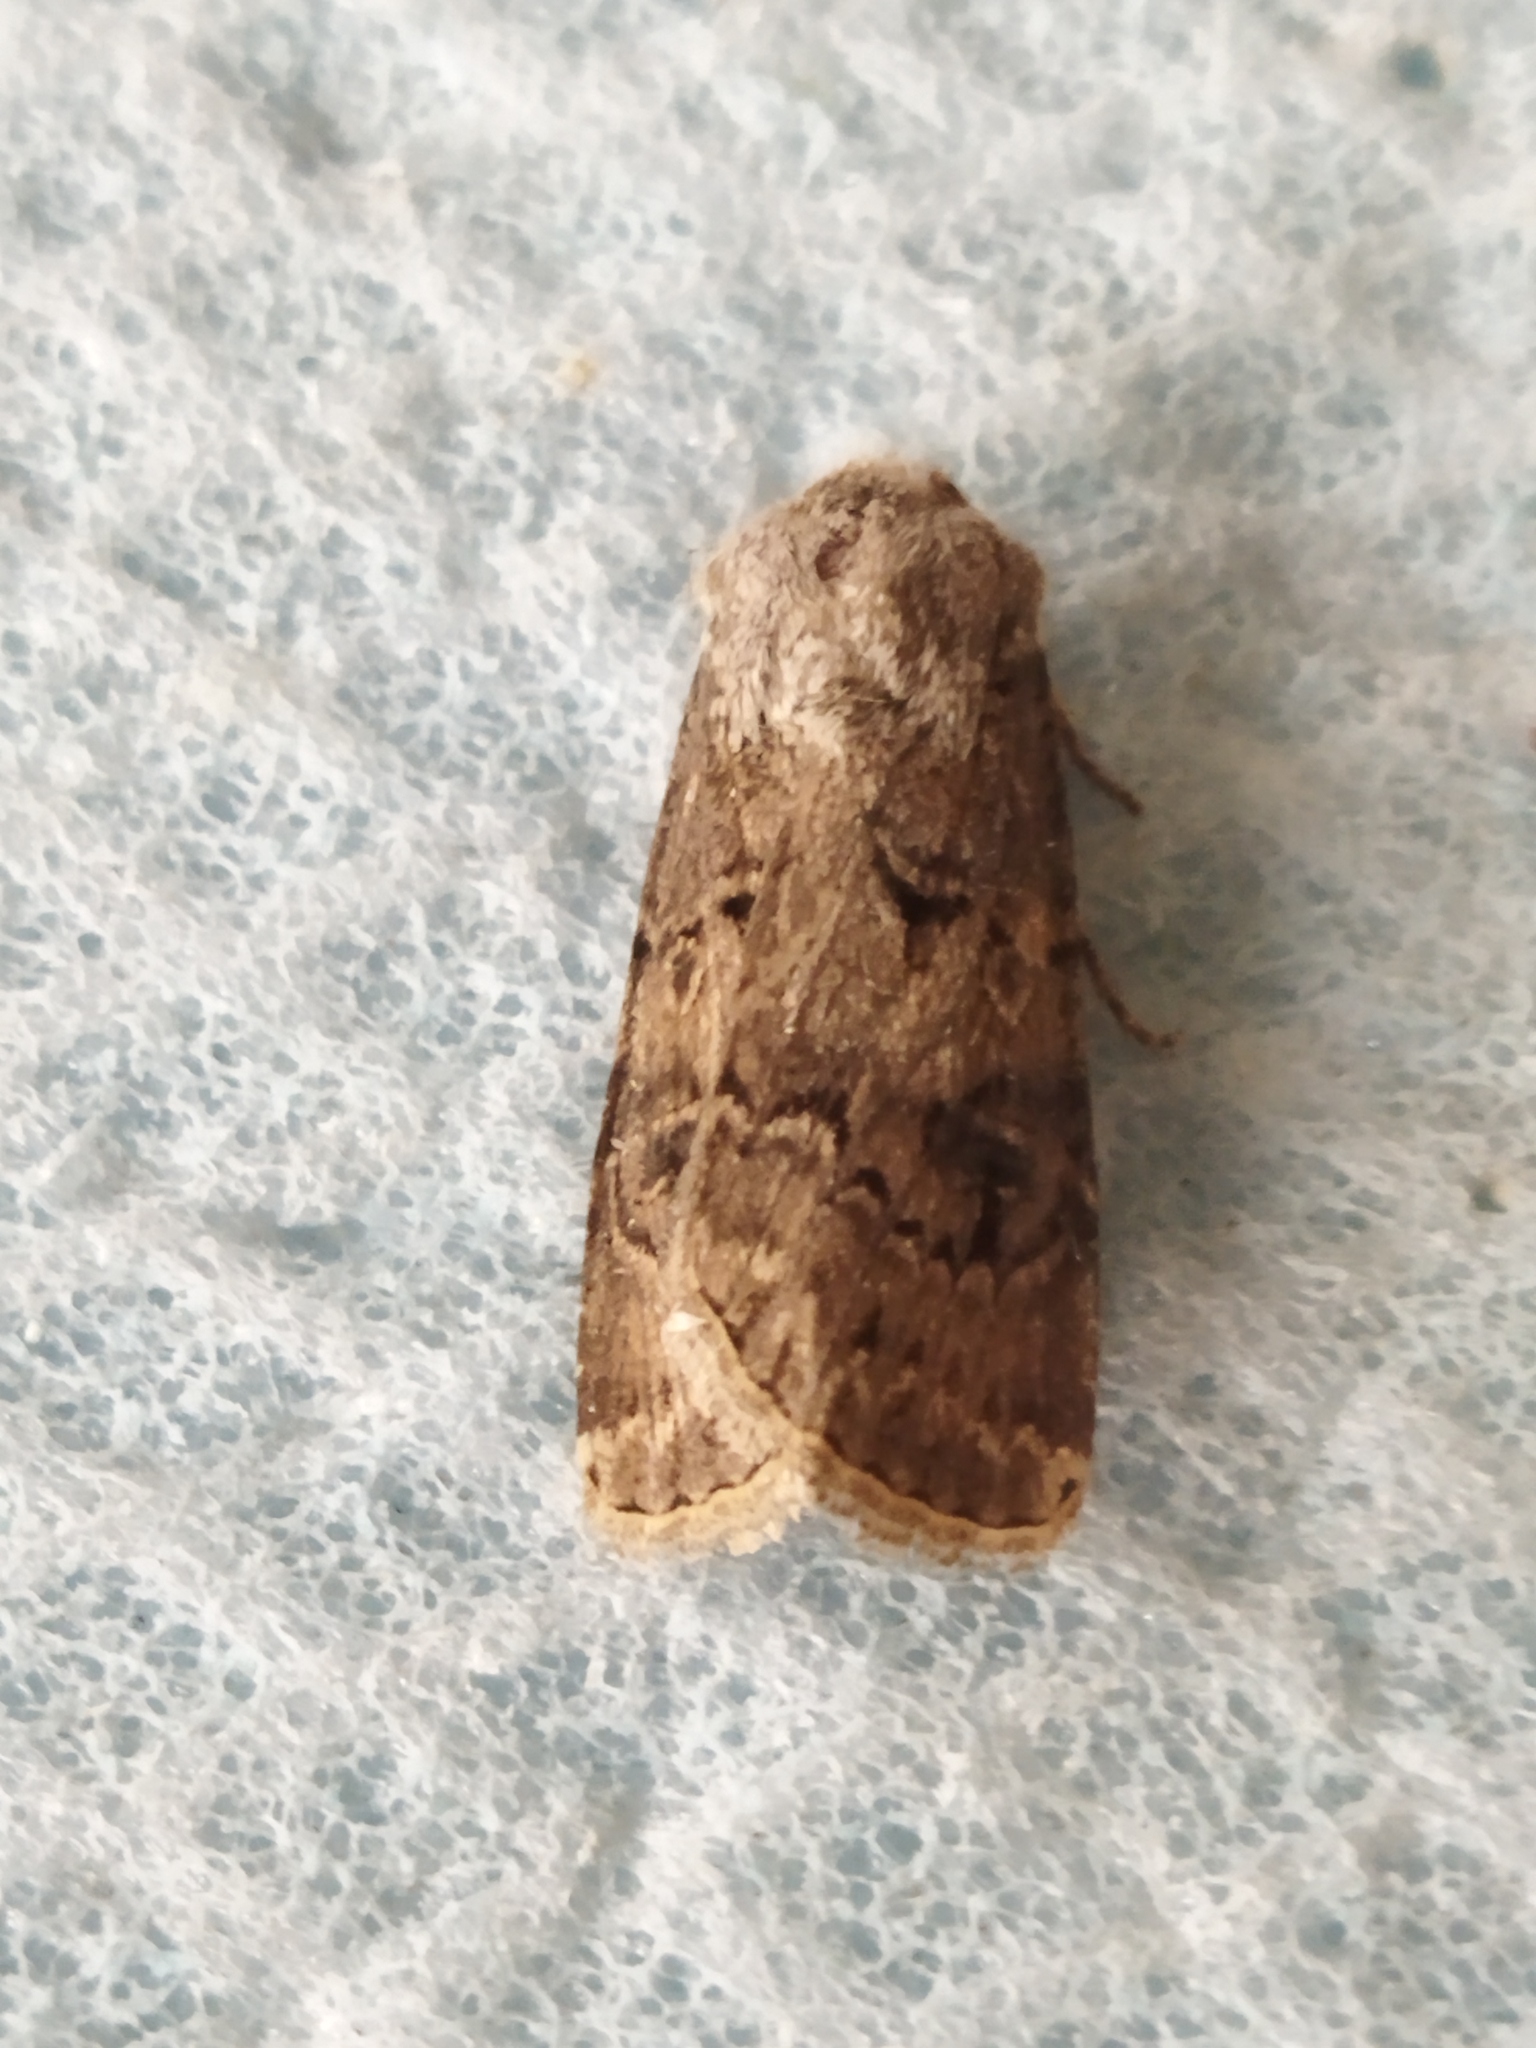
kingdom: Animalia
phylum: Arthropoda
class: Insecta
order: Lepidoptera
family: Noctuidae
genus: Agrotis
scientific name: Agrotis bigramma
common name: Great dart
